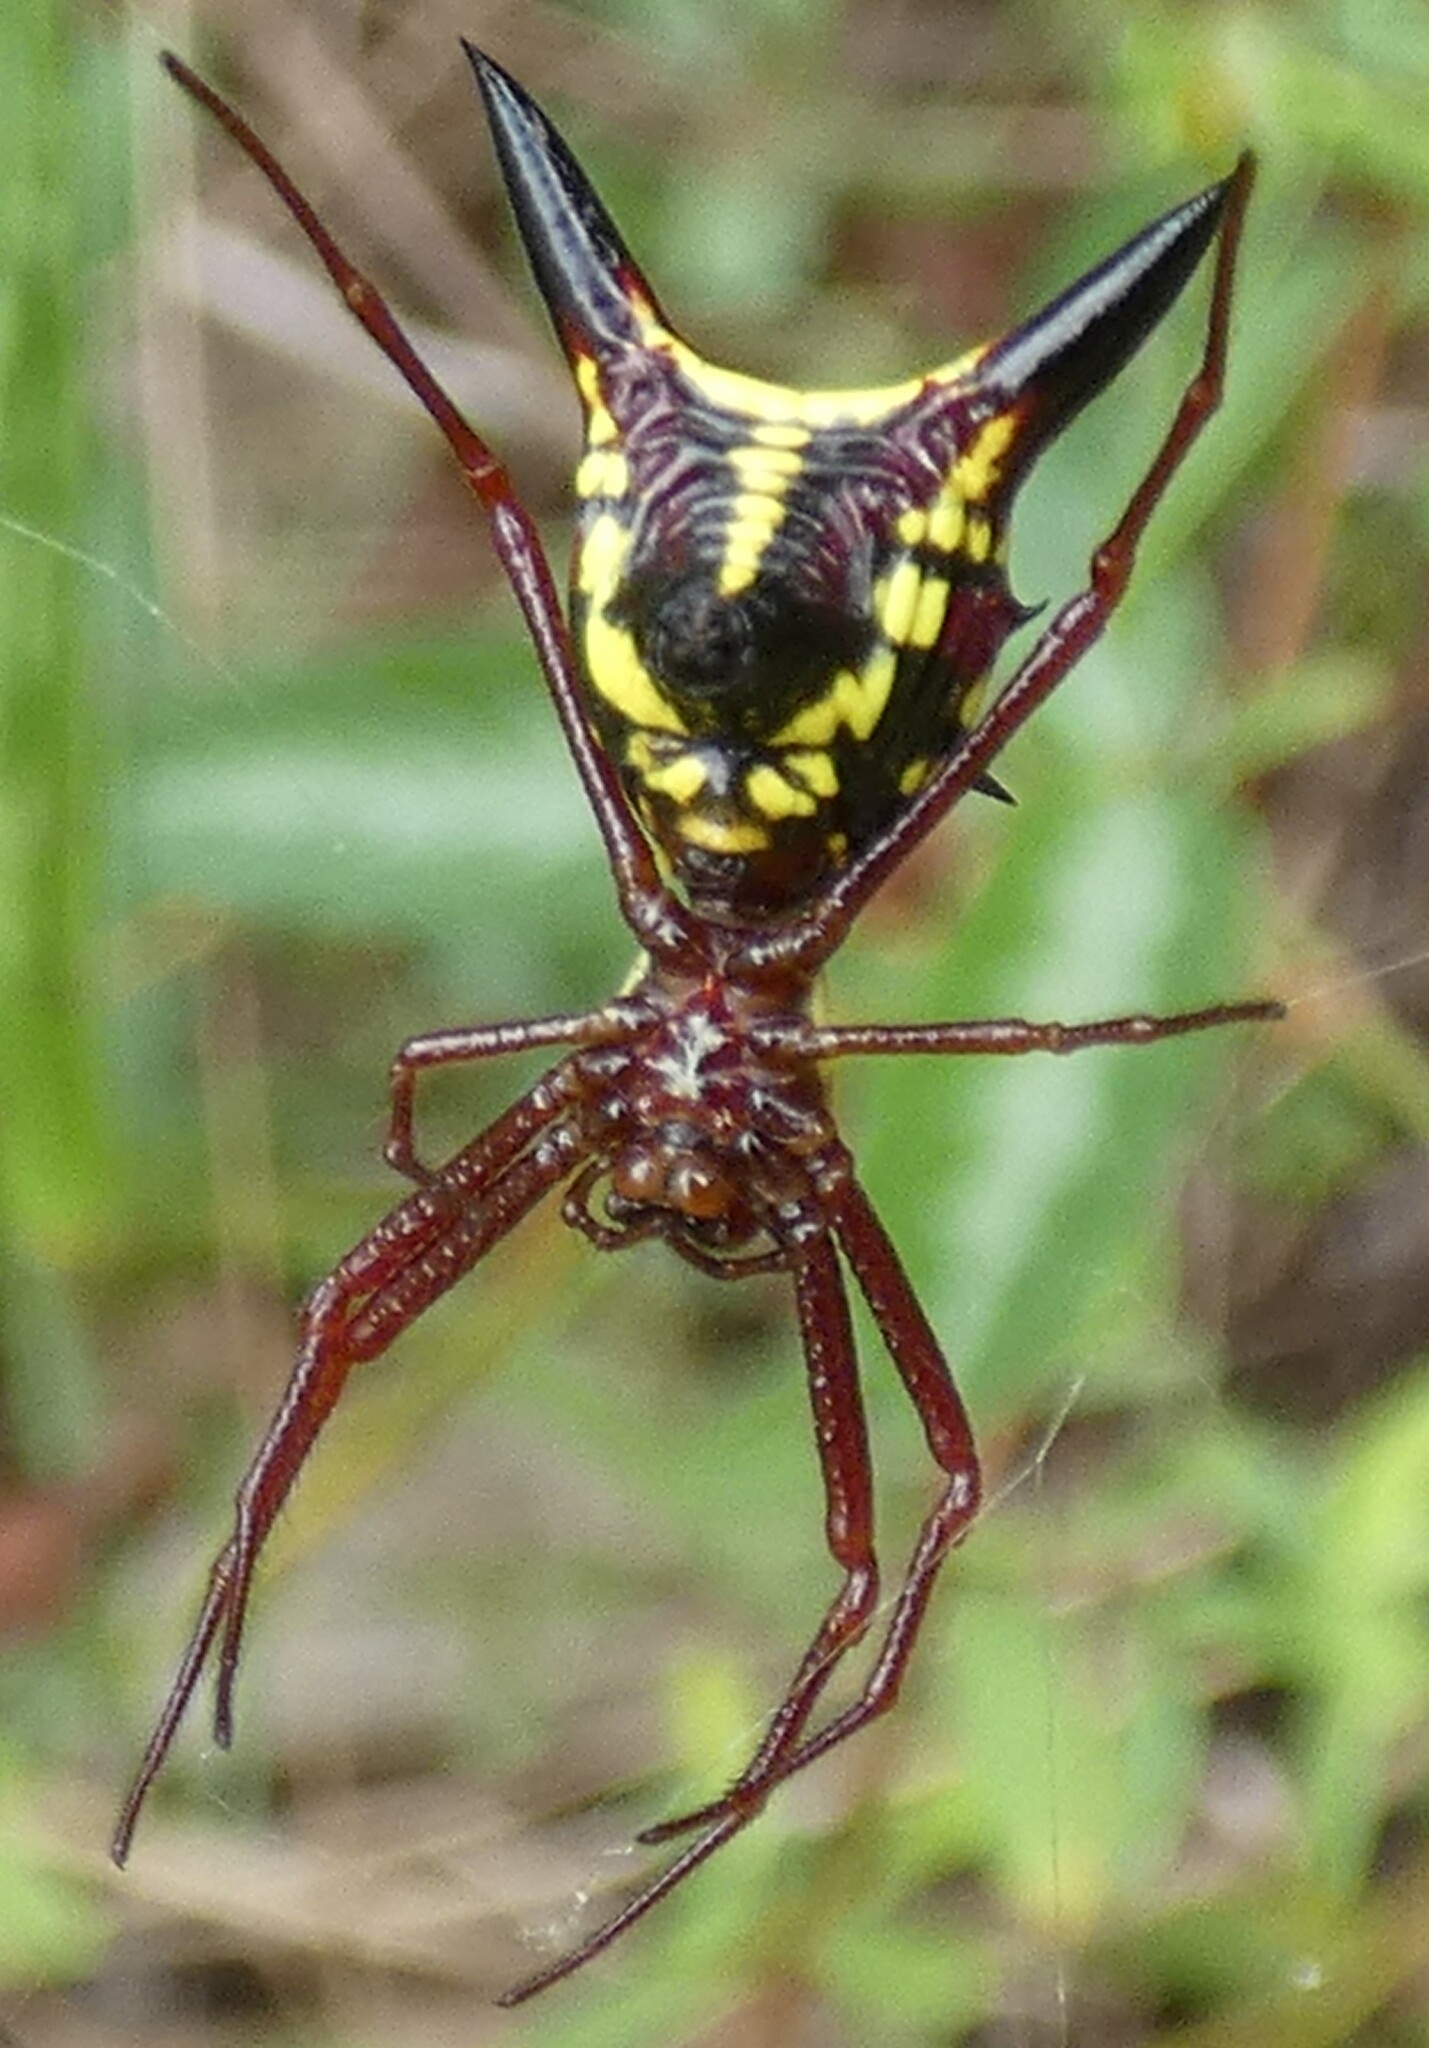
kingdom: Animalia
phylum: Arthropoda
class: Arachnida
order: Araneae
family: Araneidae
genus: Micrathena
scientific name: Micrathena sagittata
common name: Orb weavers
